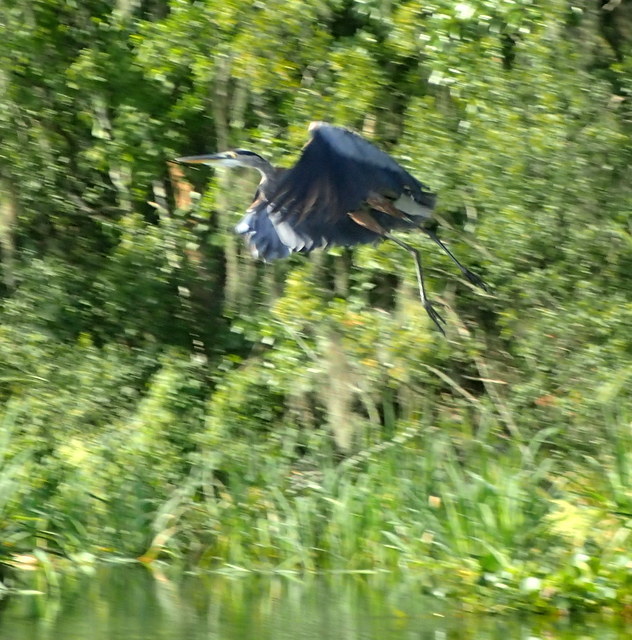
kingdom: Animalia
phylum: Chordata
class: Aves
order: Pelecaniformes
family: Ardeidae
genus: Ardea
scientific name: Ardea herodias
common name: Great blue heron
